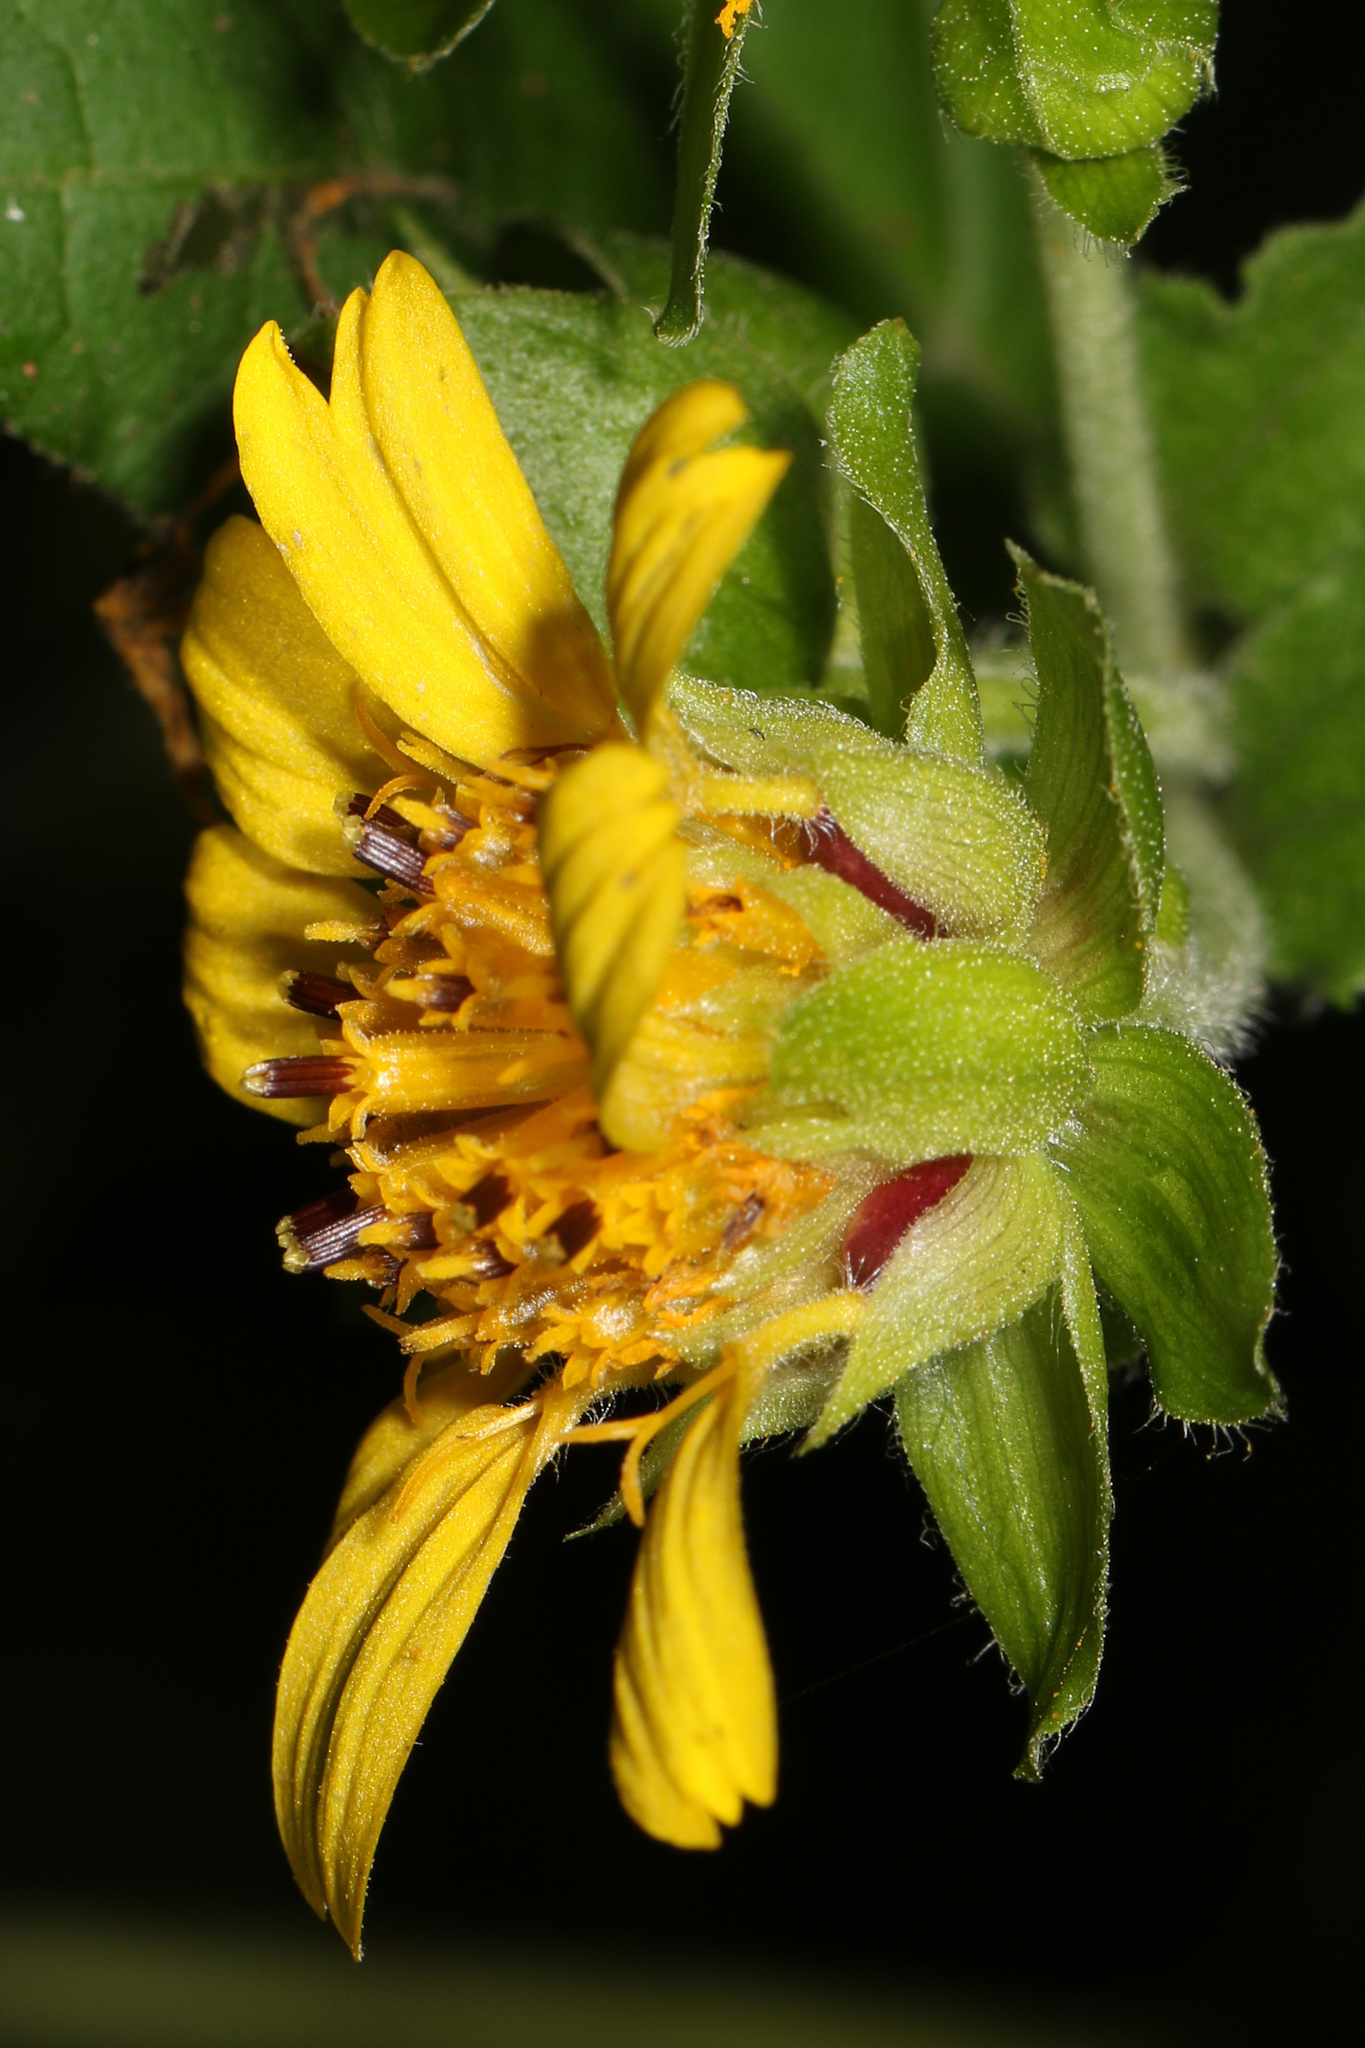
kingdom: Plantae
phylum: Tracheophyta
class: Magnoliopsida
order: Asterales
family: Asteraceae
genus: Smallanthus
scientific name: Smallanthus uvedalia
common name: Bear's-foot
